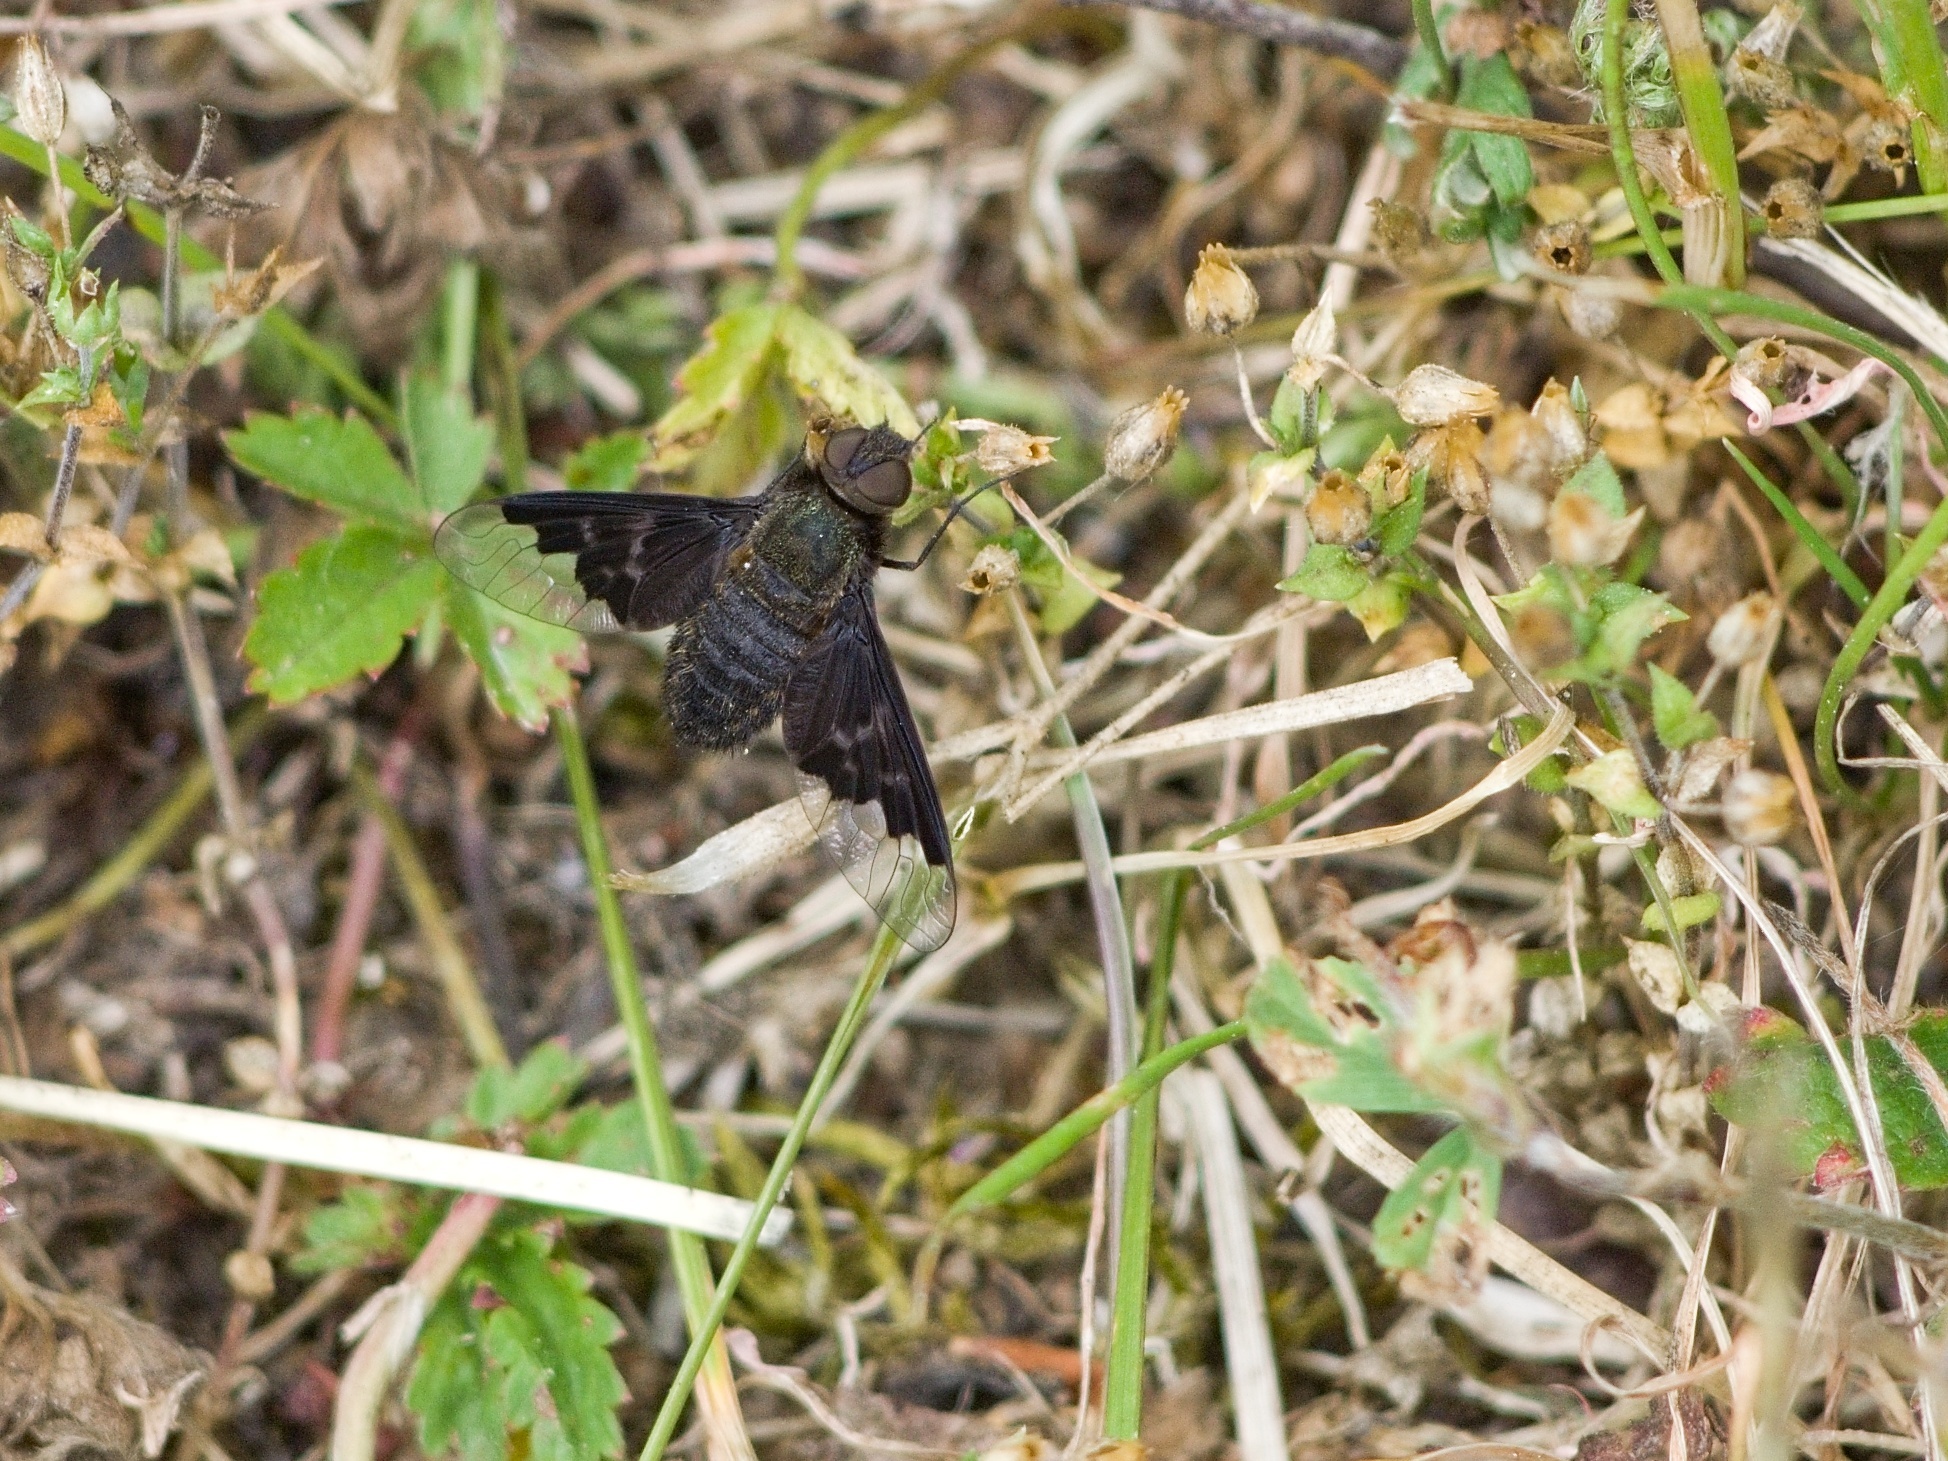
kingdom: Animalia
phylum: Arthropoda
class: Insecta
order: Diptera
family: Bombyliidae
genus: Hemipenthes
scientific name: Hemipenthes morio
